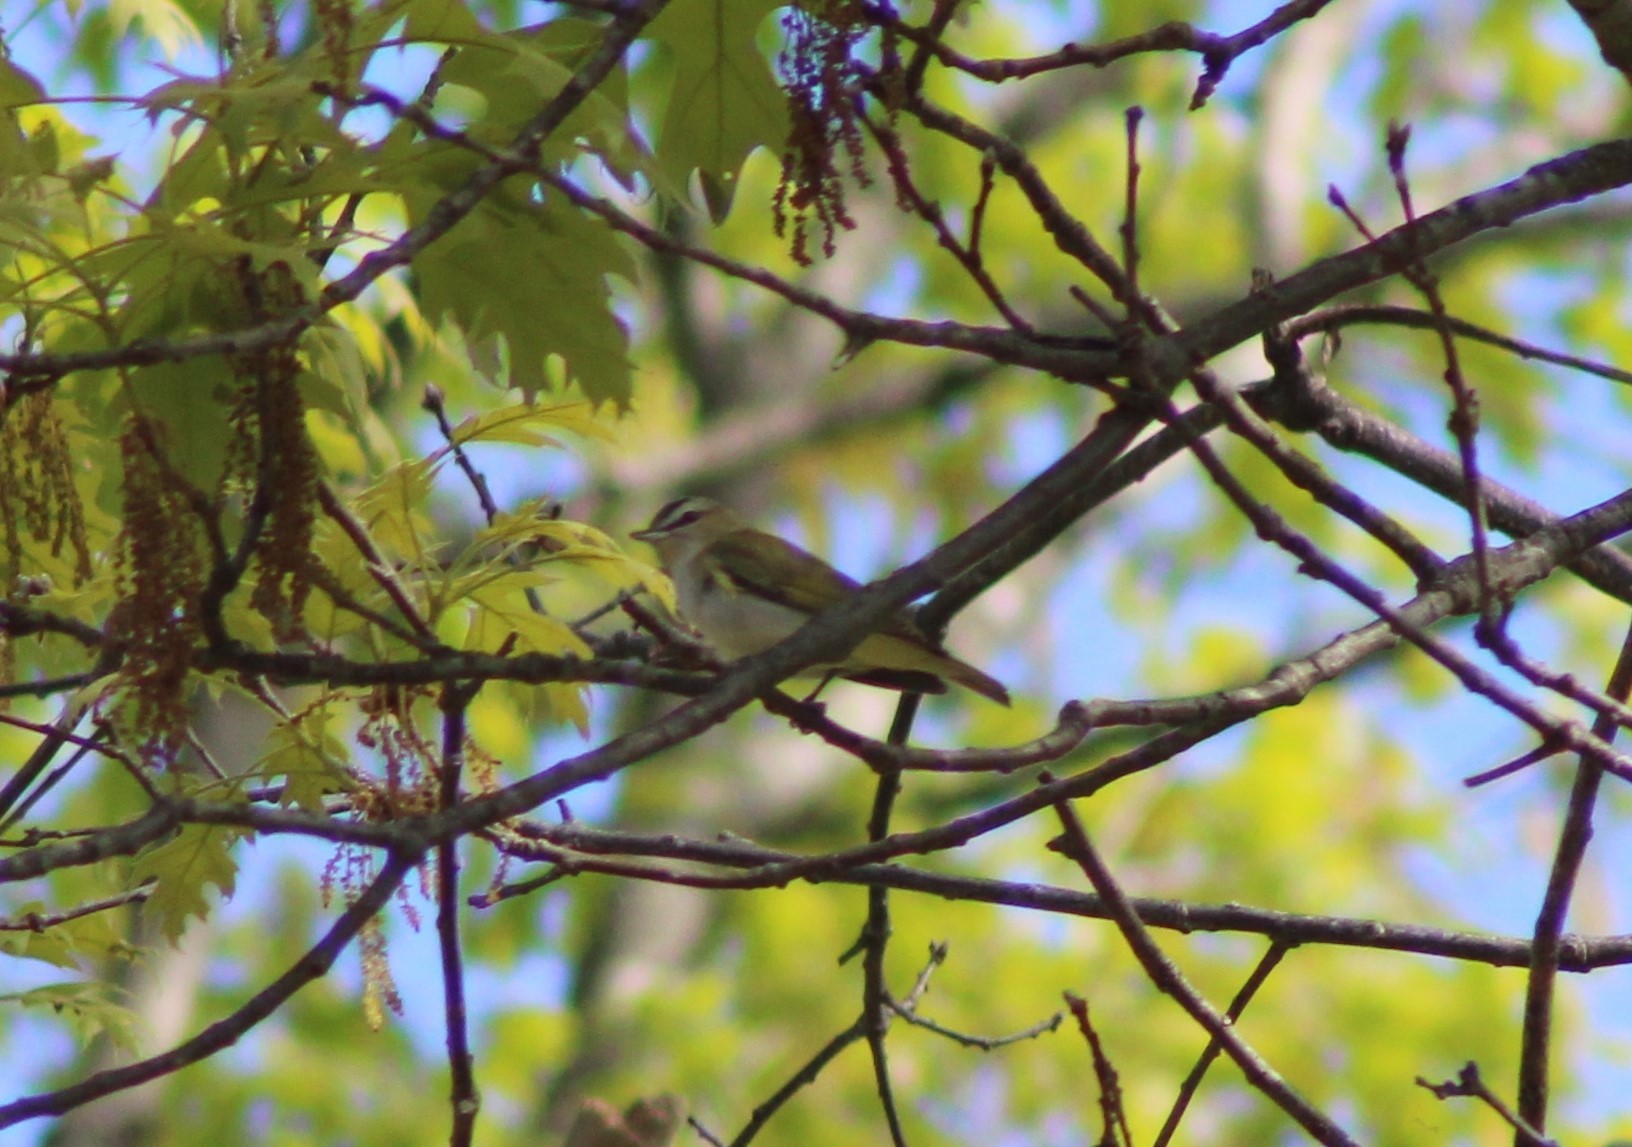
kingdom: Animalia
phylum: Chordata
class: Aves
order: Passeriformes
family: Vireonidae
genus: Vireo
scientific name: Vireo olivaceus
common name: Red-eyed vireo
